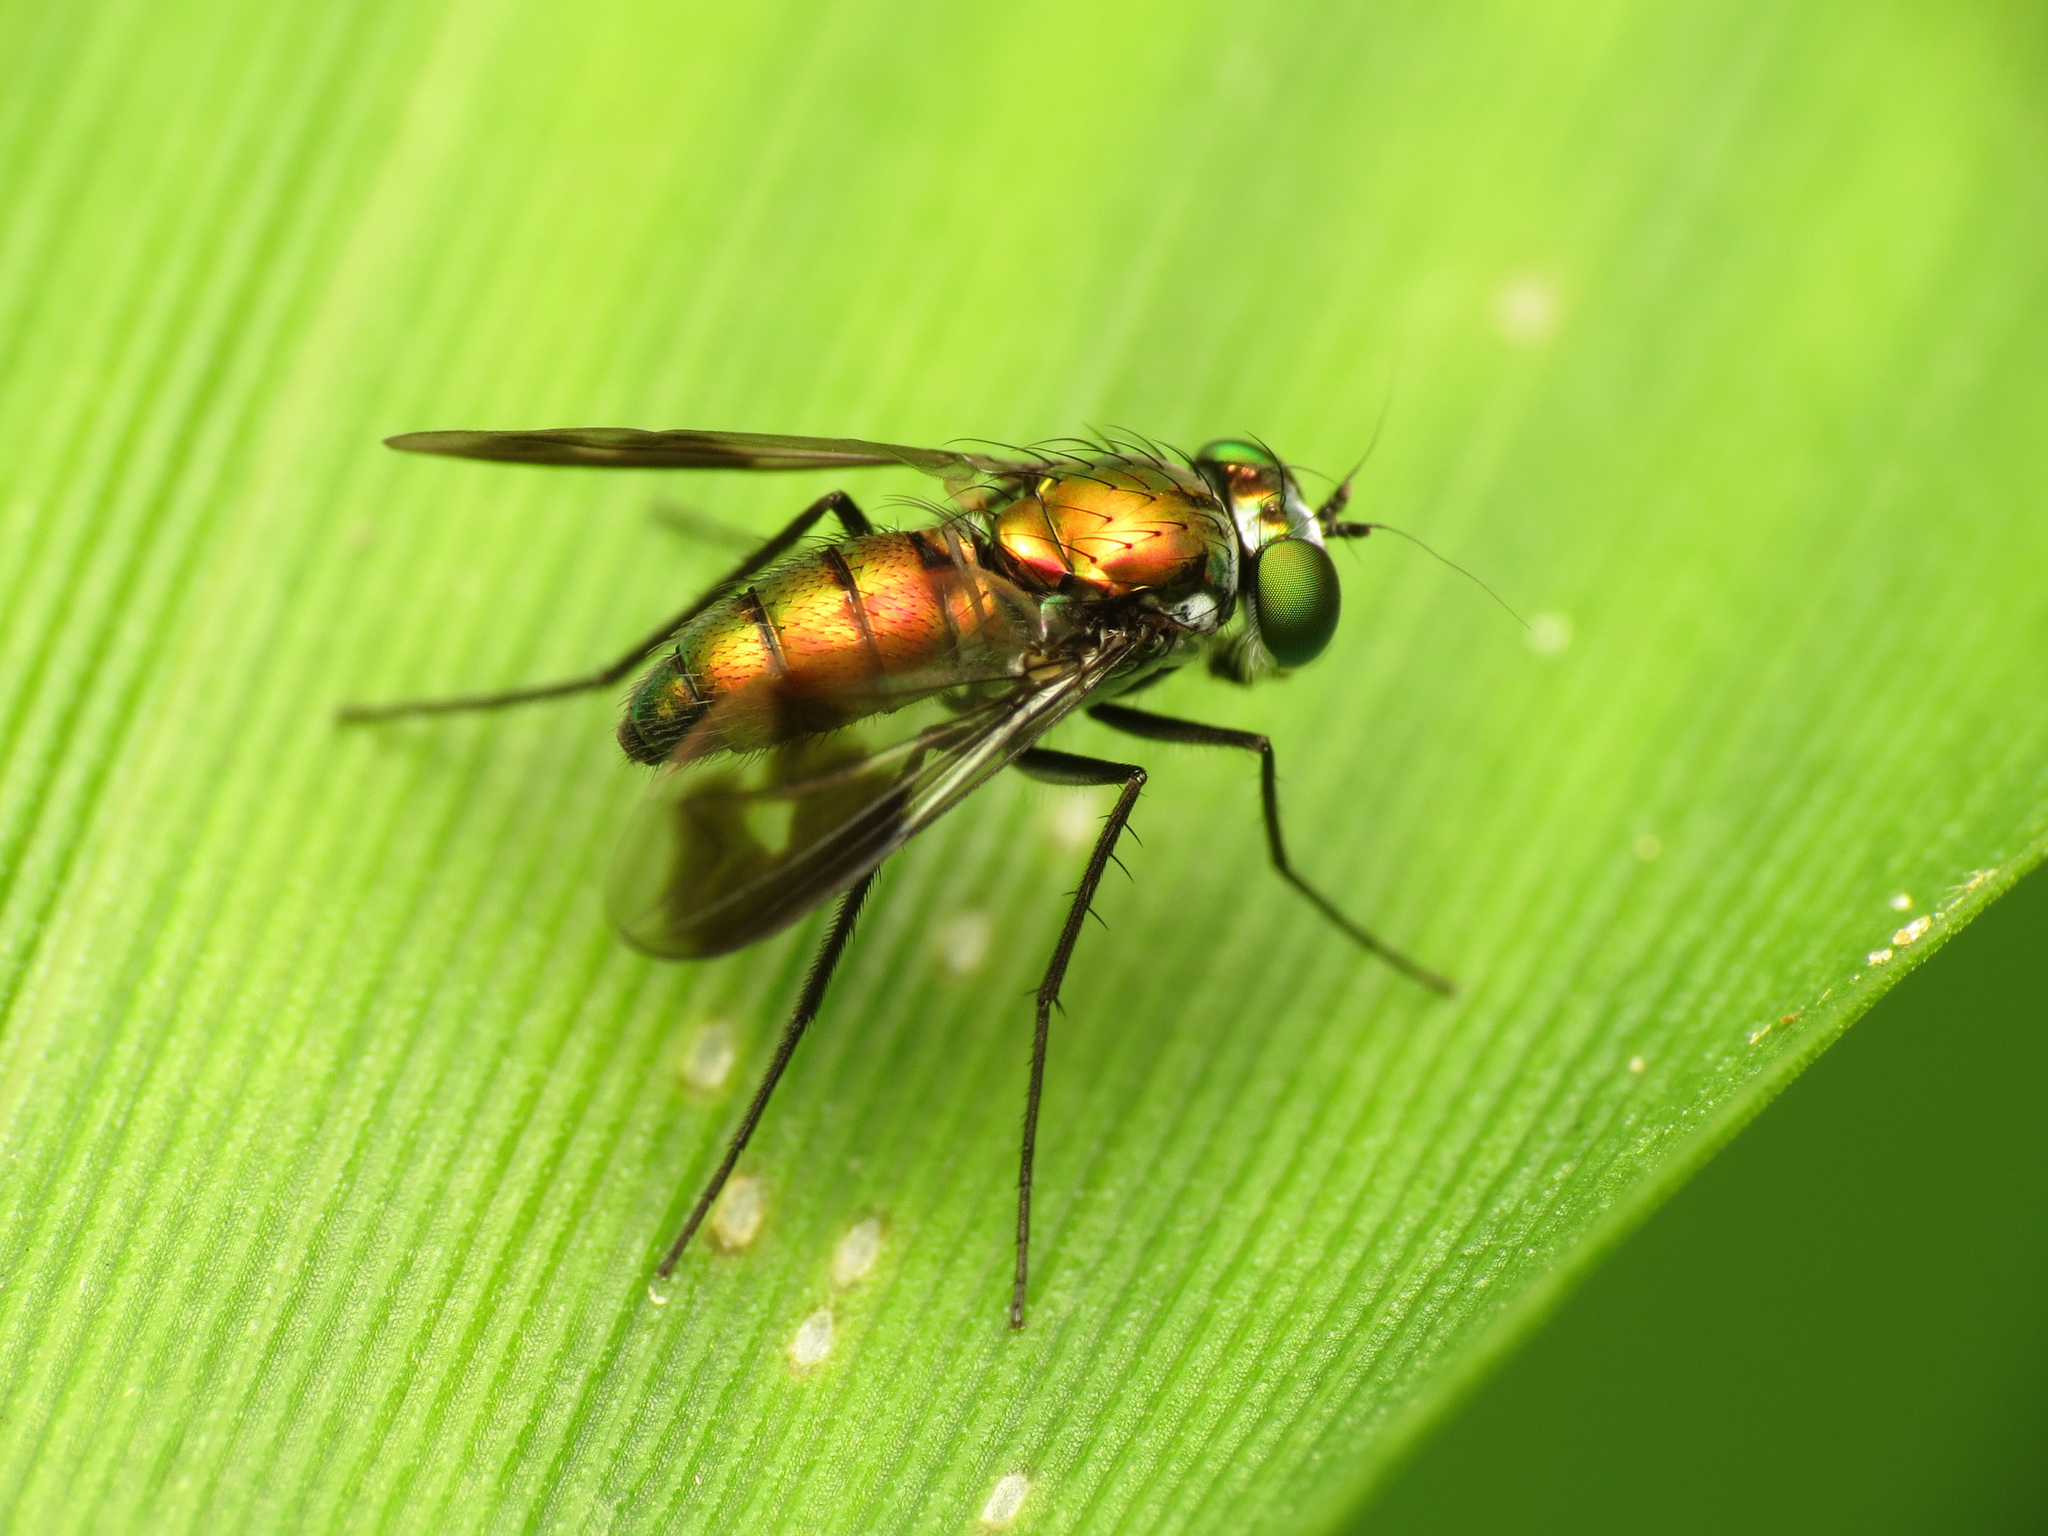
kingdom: Animalia
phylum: Arthropoda
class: Insecta
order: Diptera
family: Dolichopodidae
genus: Condylostylus
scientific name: Condylostylus patibulatus
